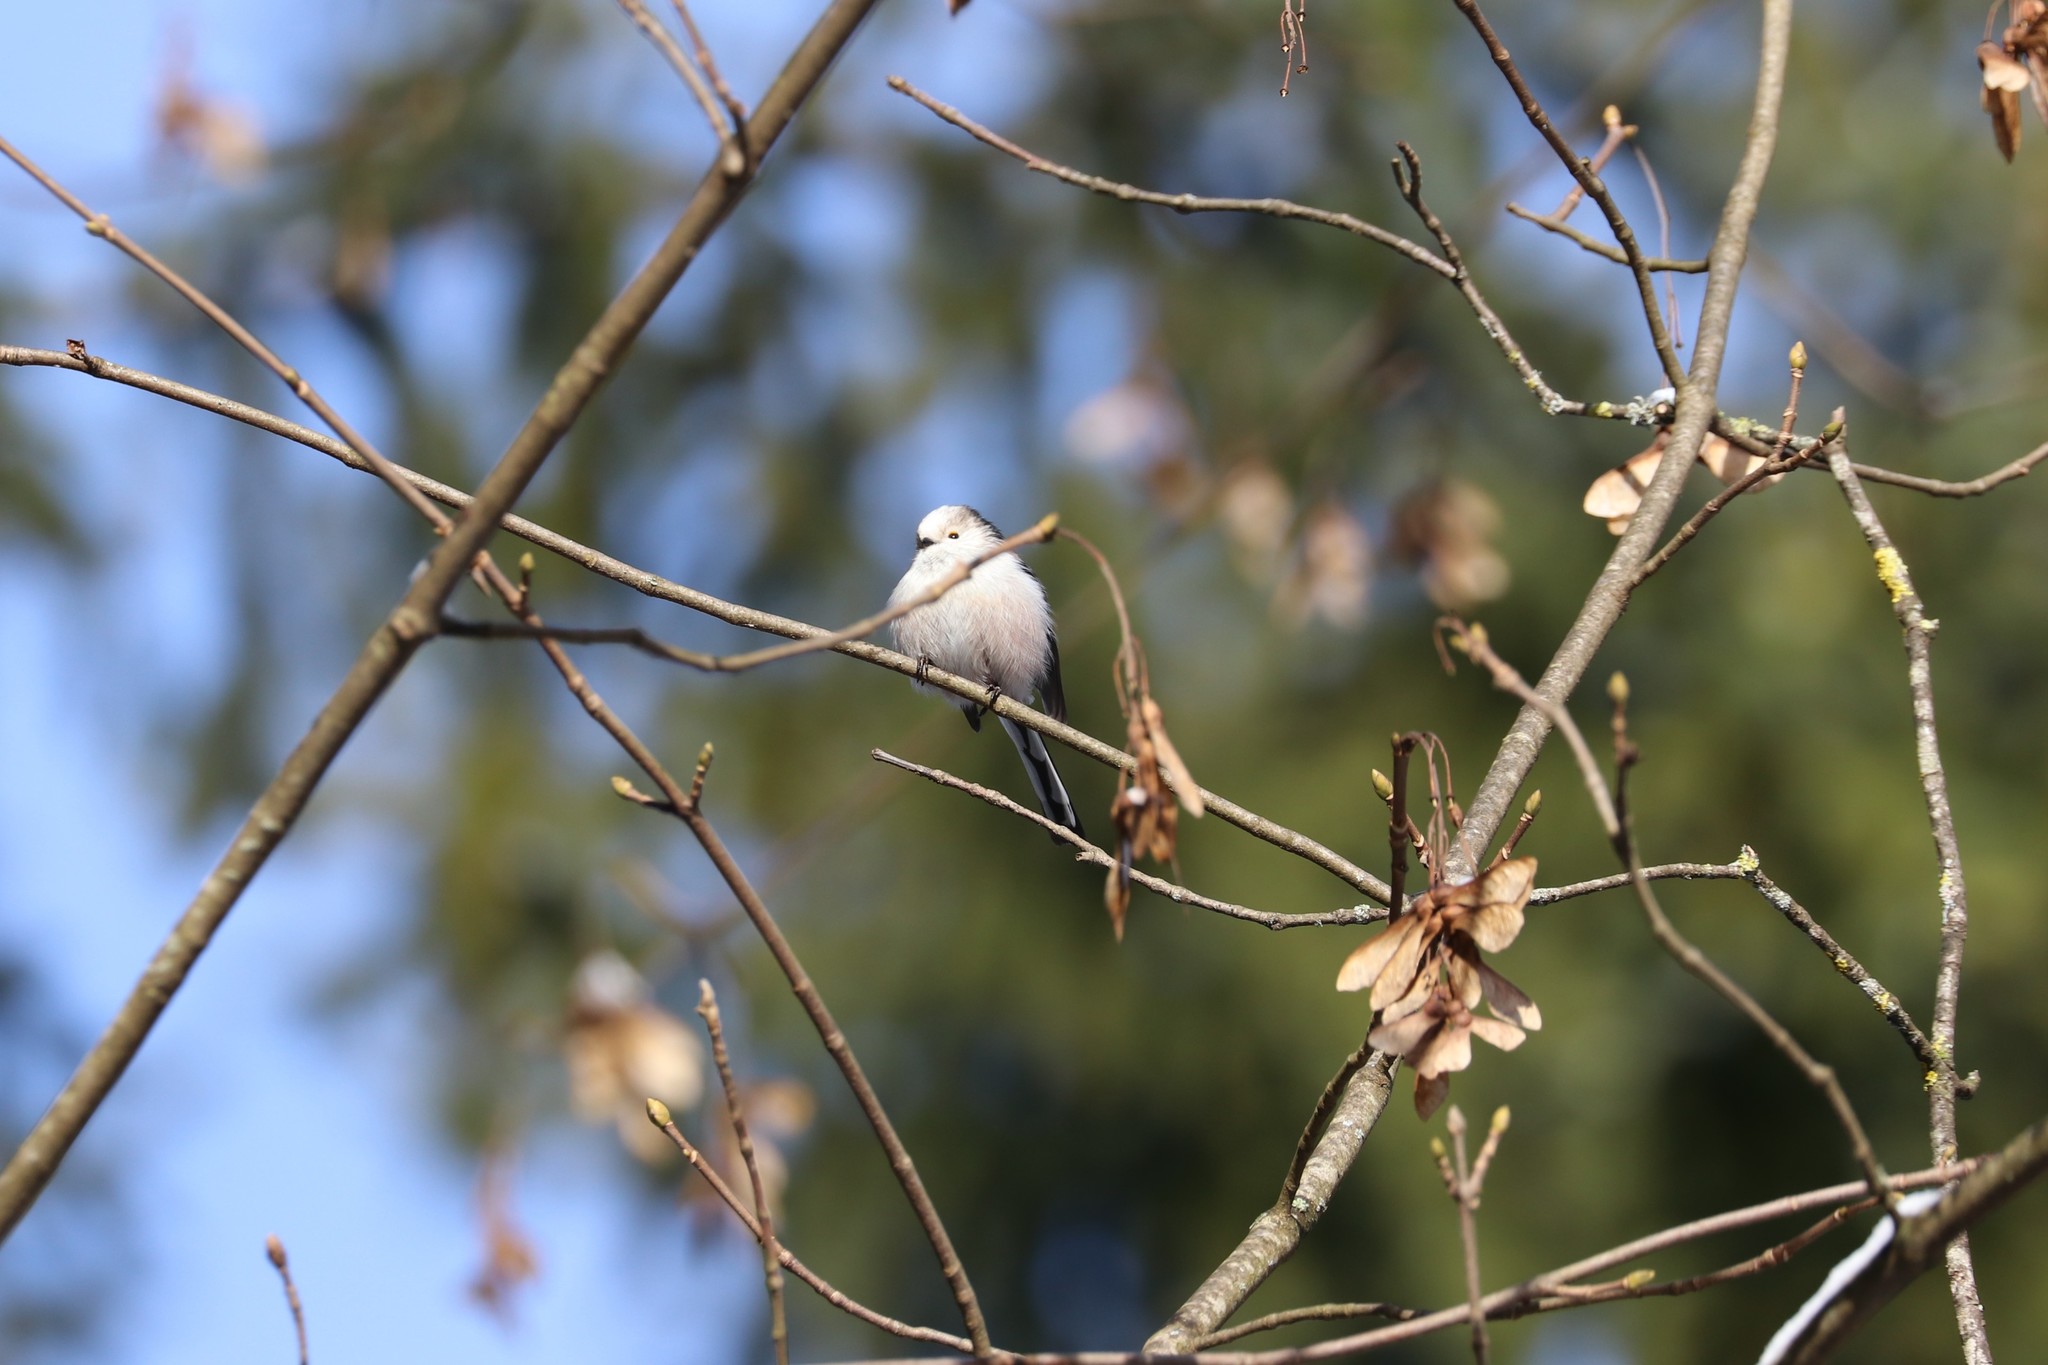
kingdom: Animalia
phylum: Chordata
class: Aves
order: Passeriformes
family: Aegithalidae
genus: Aegithalos
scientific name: Aegithalos caudatus
